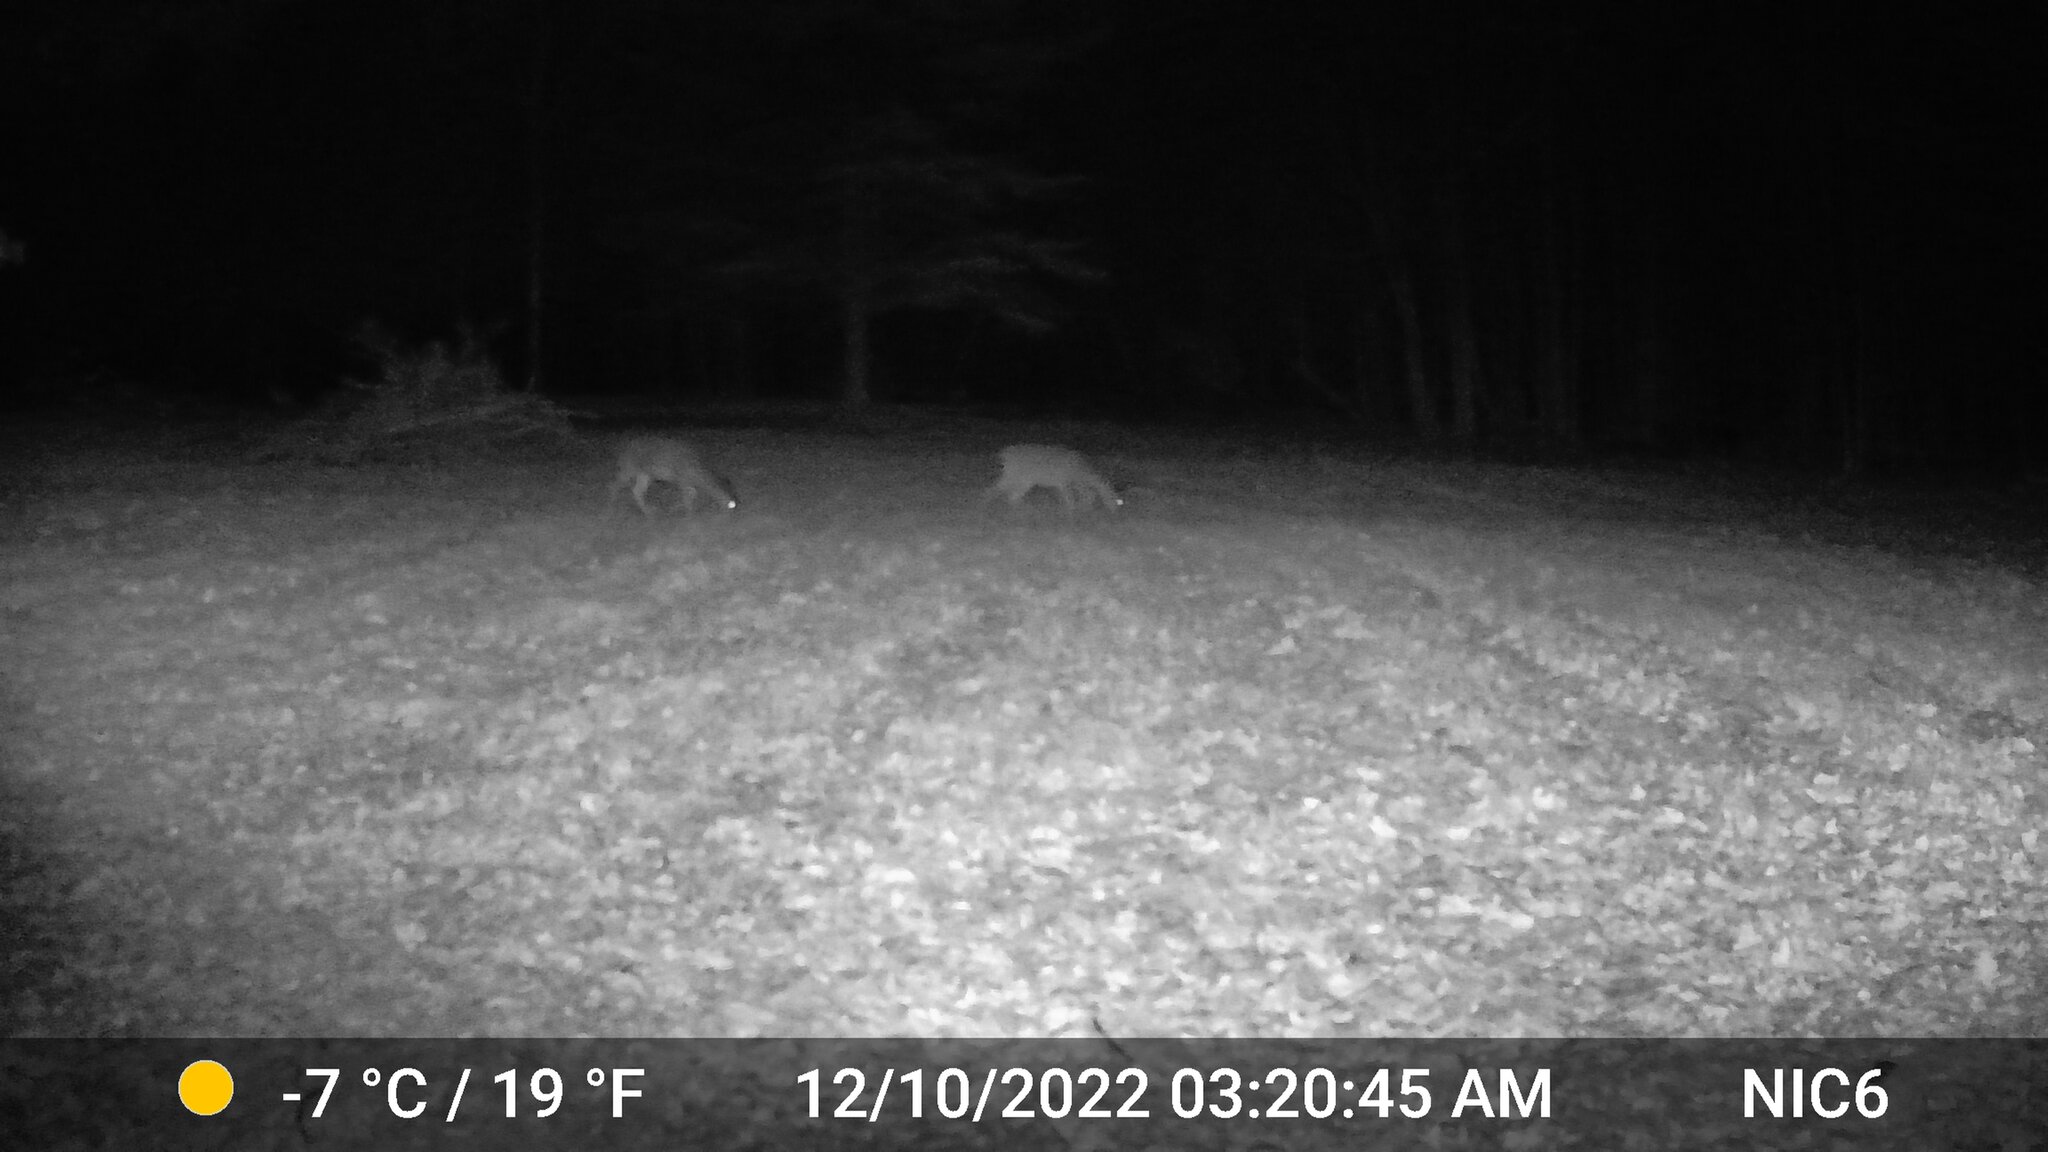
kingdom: Animalia
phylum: Chordata
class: Mammalia
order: Artiodactyla
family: Cervidae
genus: Odocoileus
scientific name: Odocoileus virginianus
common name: White-tailed deer
